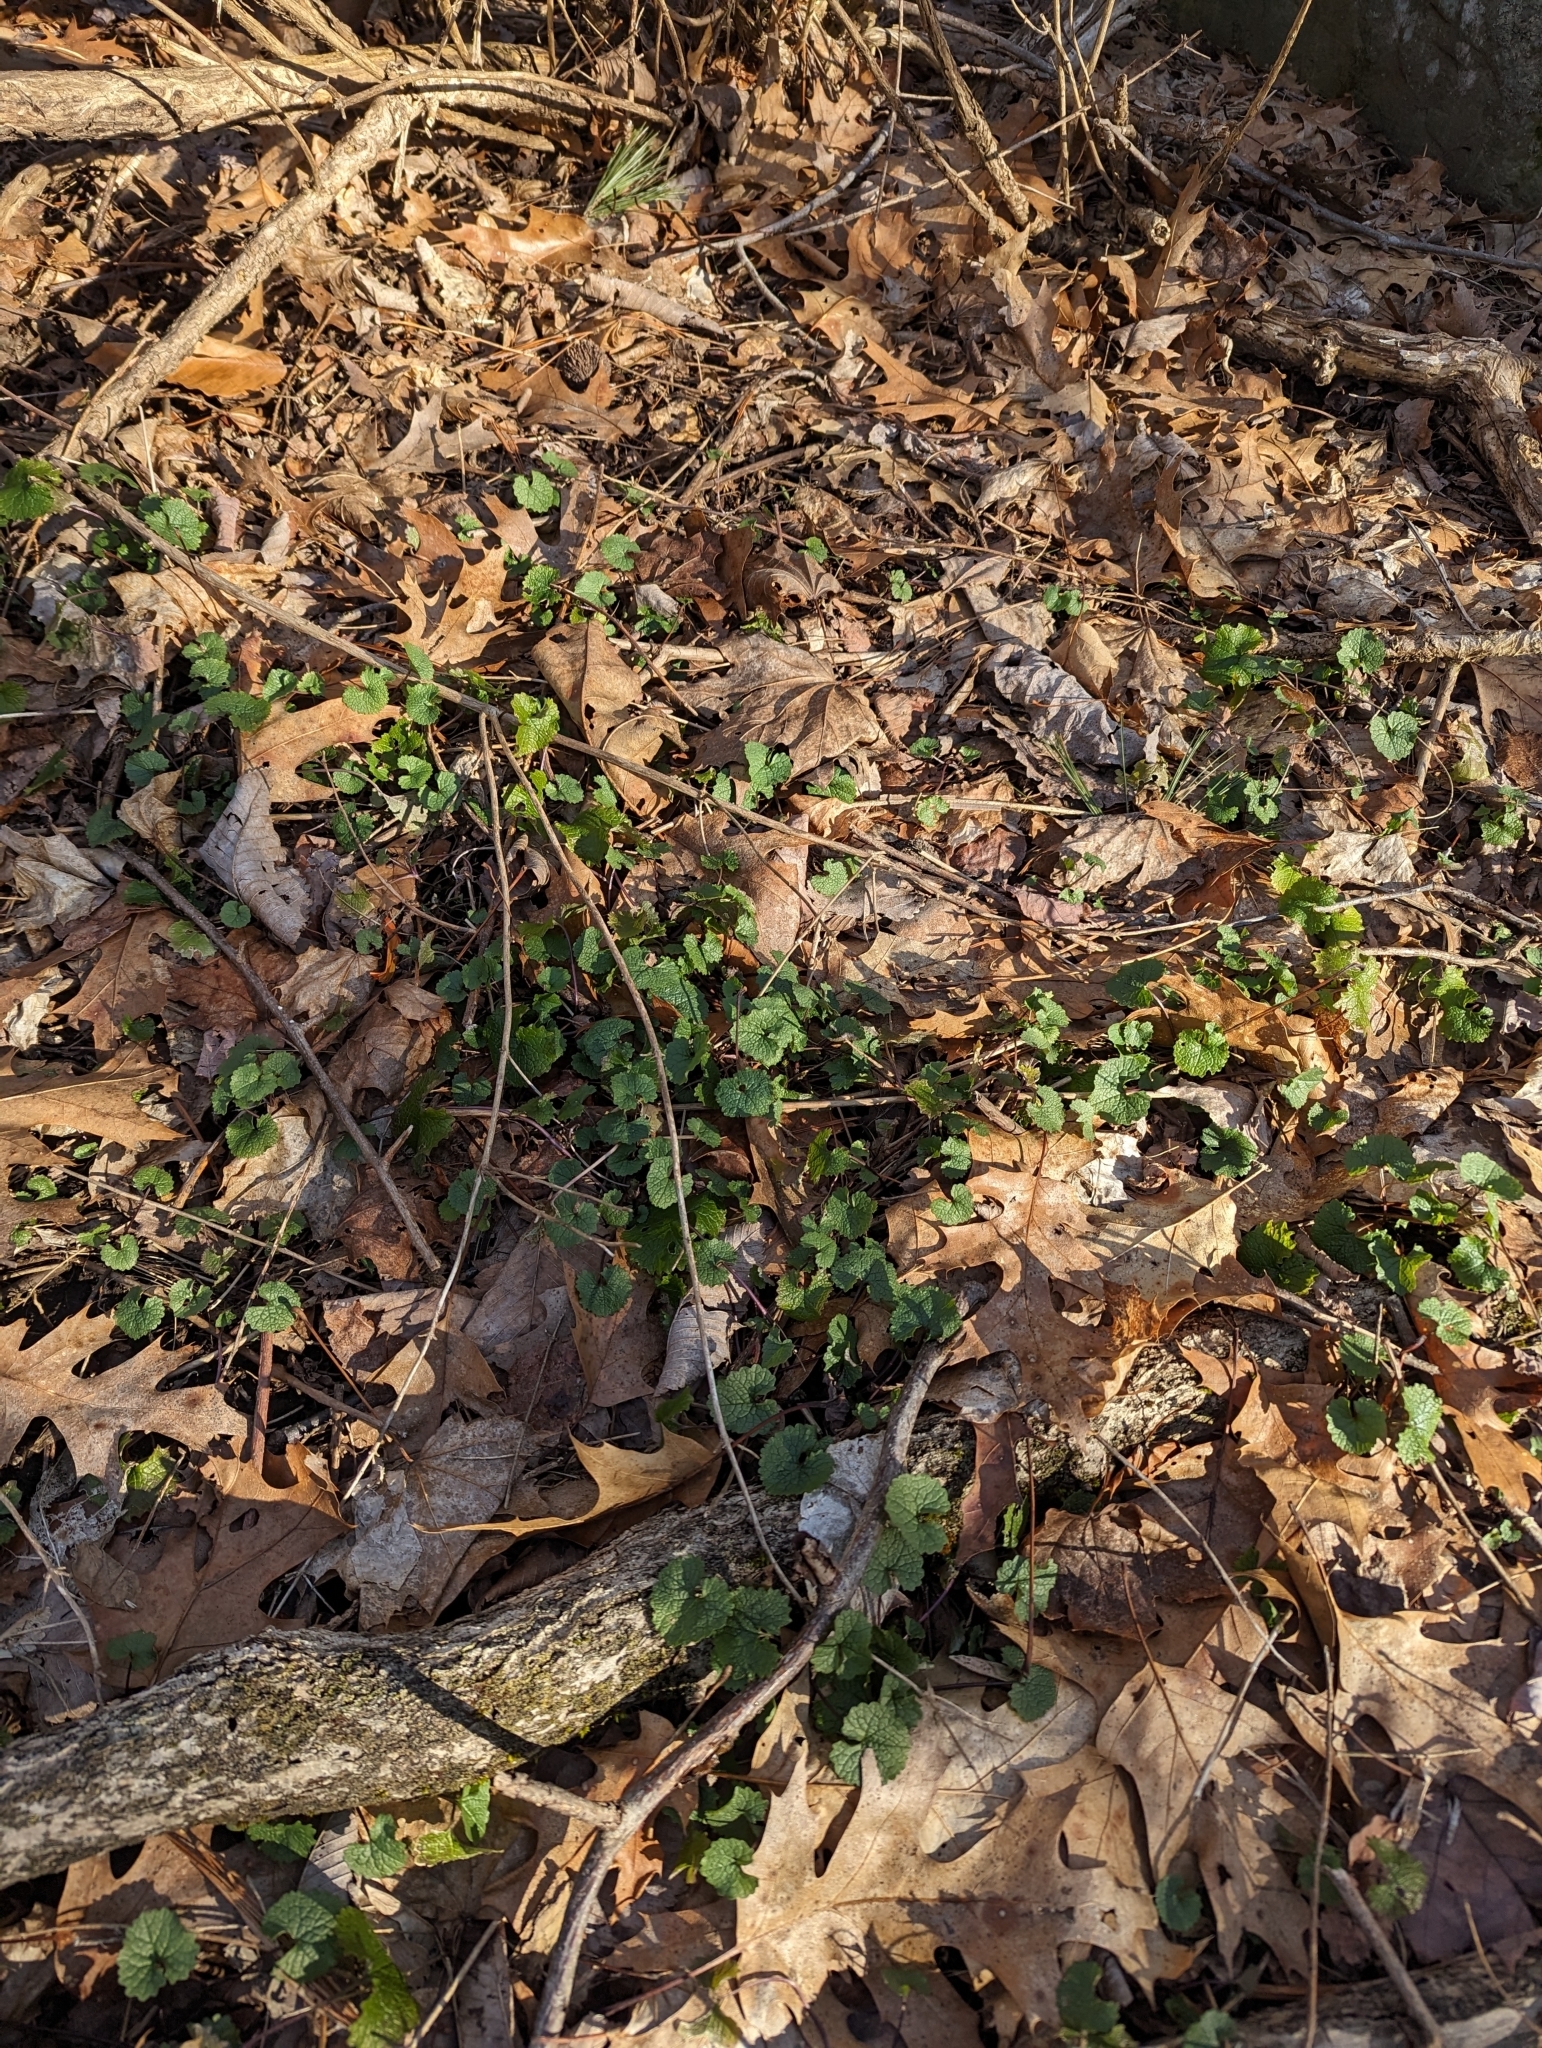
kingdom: Plantae
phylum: Tracheophyta
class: Magnoliopsida
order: Brassicales
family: Brassicaceae
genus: Alliaria
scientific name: Alliaria petiolata
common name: Garlic mustard
